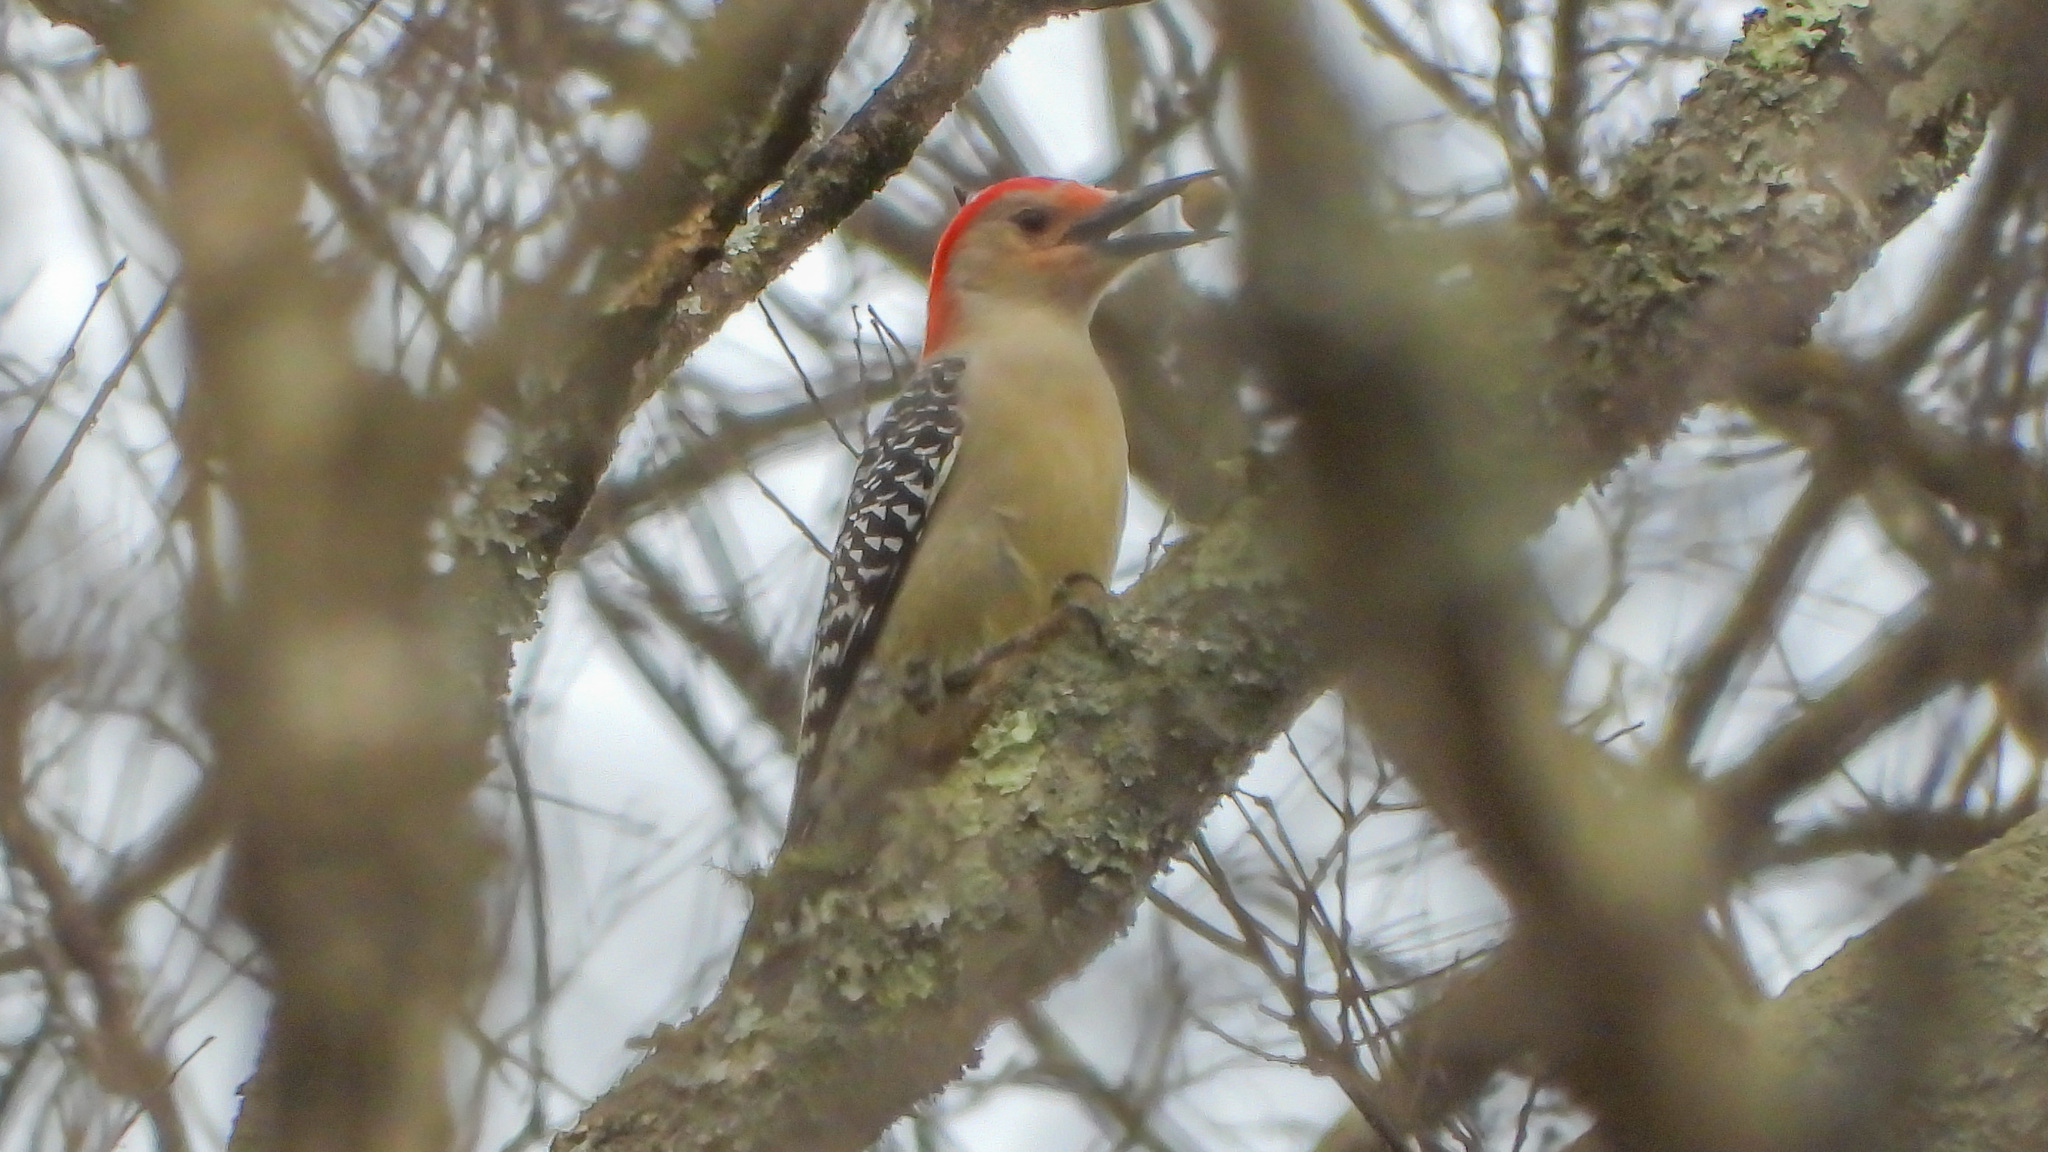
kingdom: Animalia
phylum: Chordata
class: Aves
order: Piciformes
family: Picidae
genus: Melanerpes
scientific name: Melanerpes carolinus
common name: Red-bellied woodpecker
